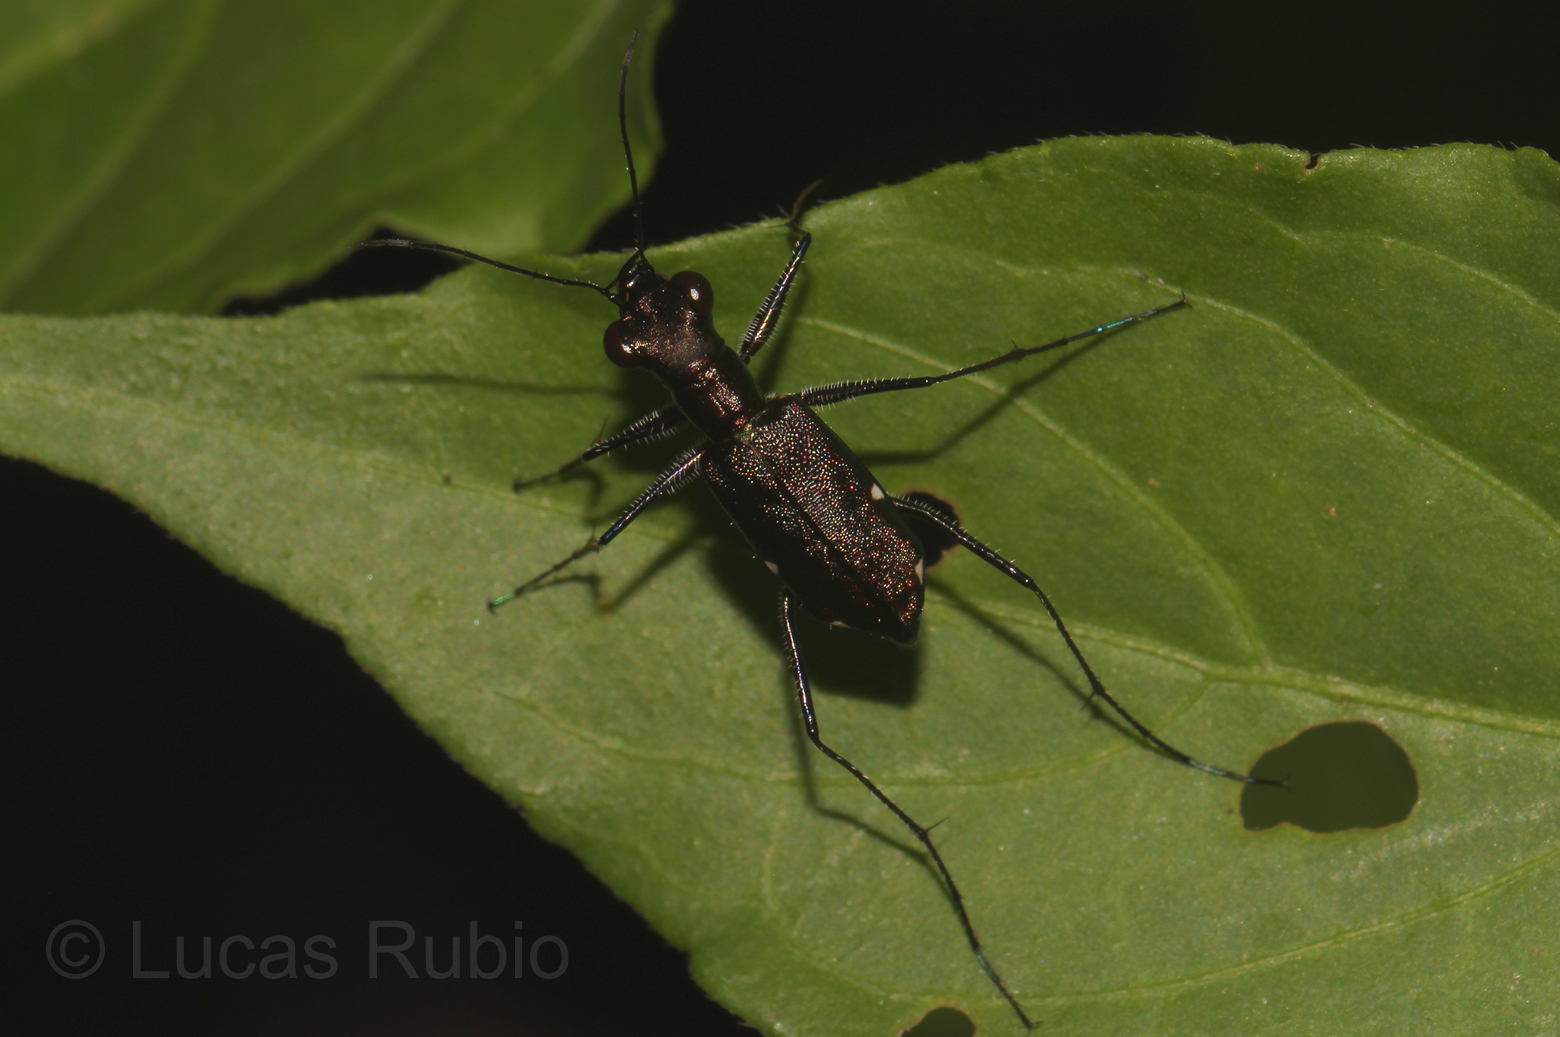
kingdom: Animalia
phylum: Arthropoda
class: Insecta
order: Coleoptera
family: Carabidae
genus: Odontocheila
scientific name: Odontocheila chrysis
